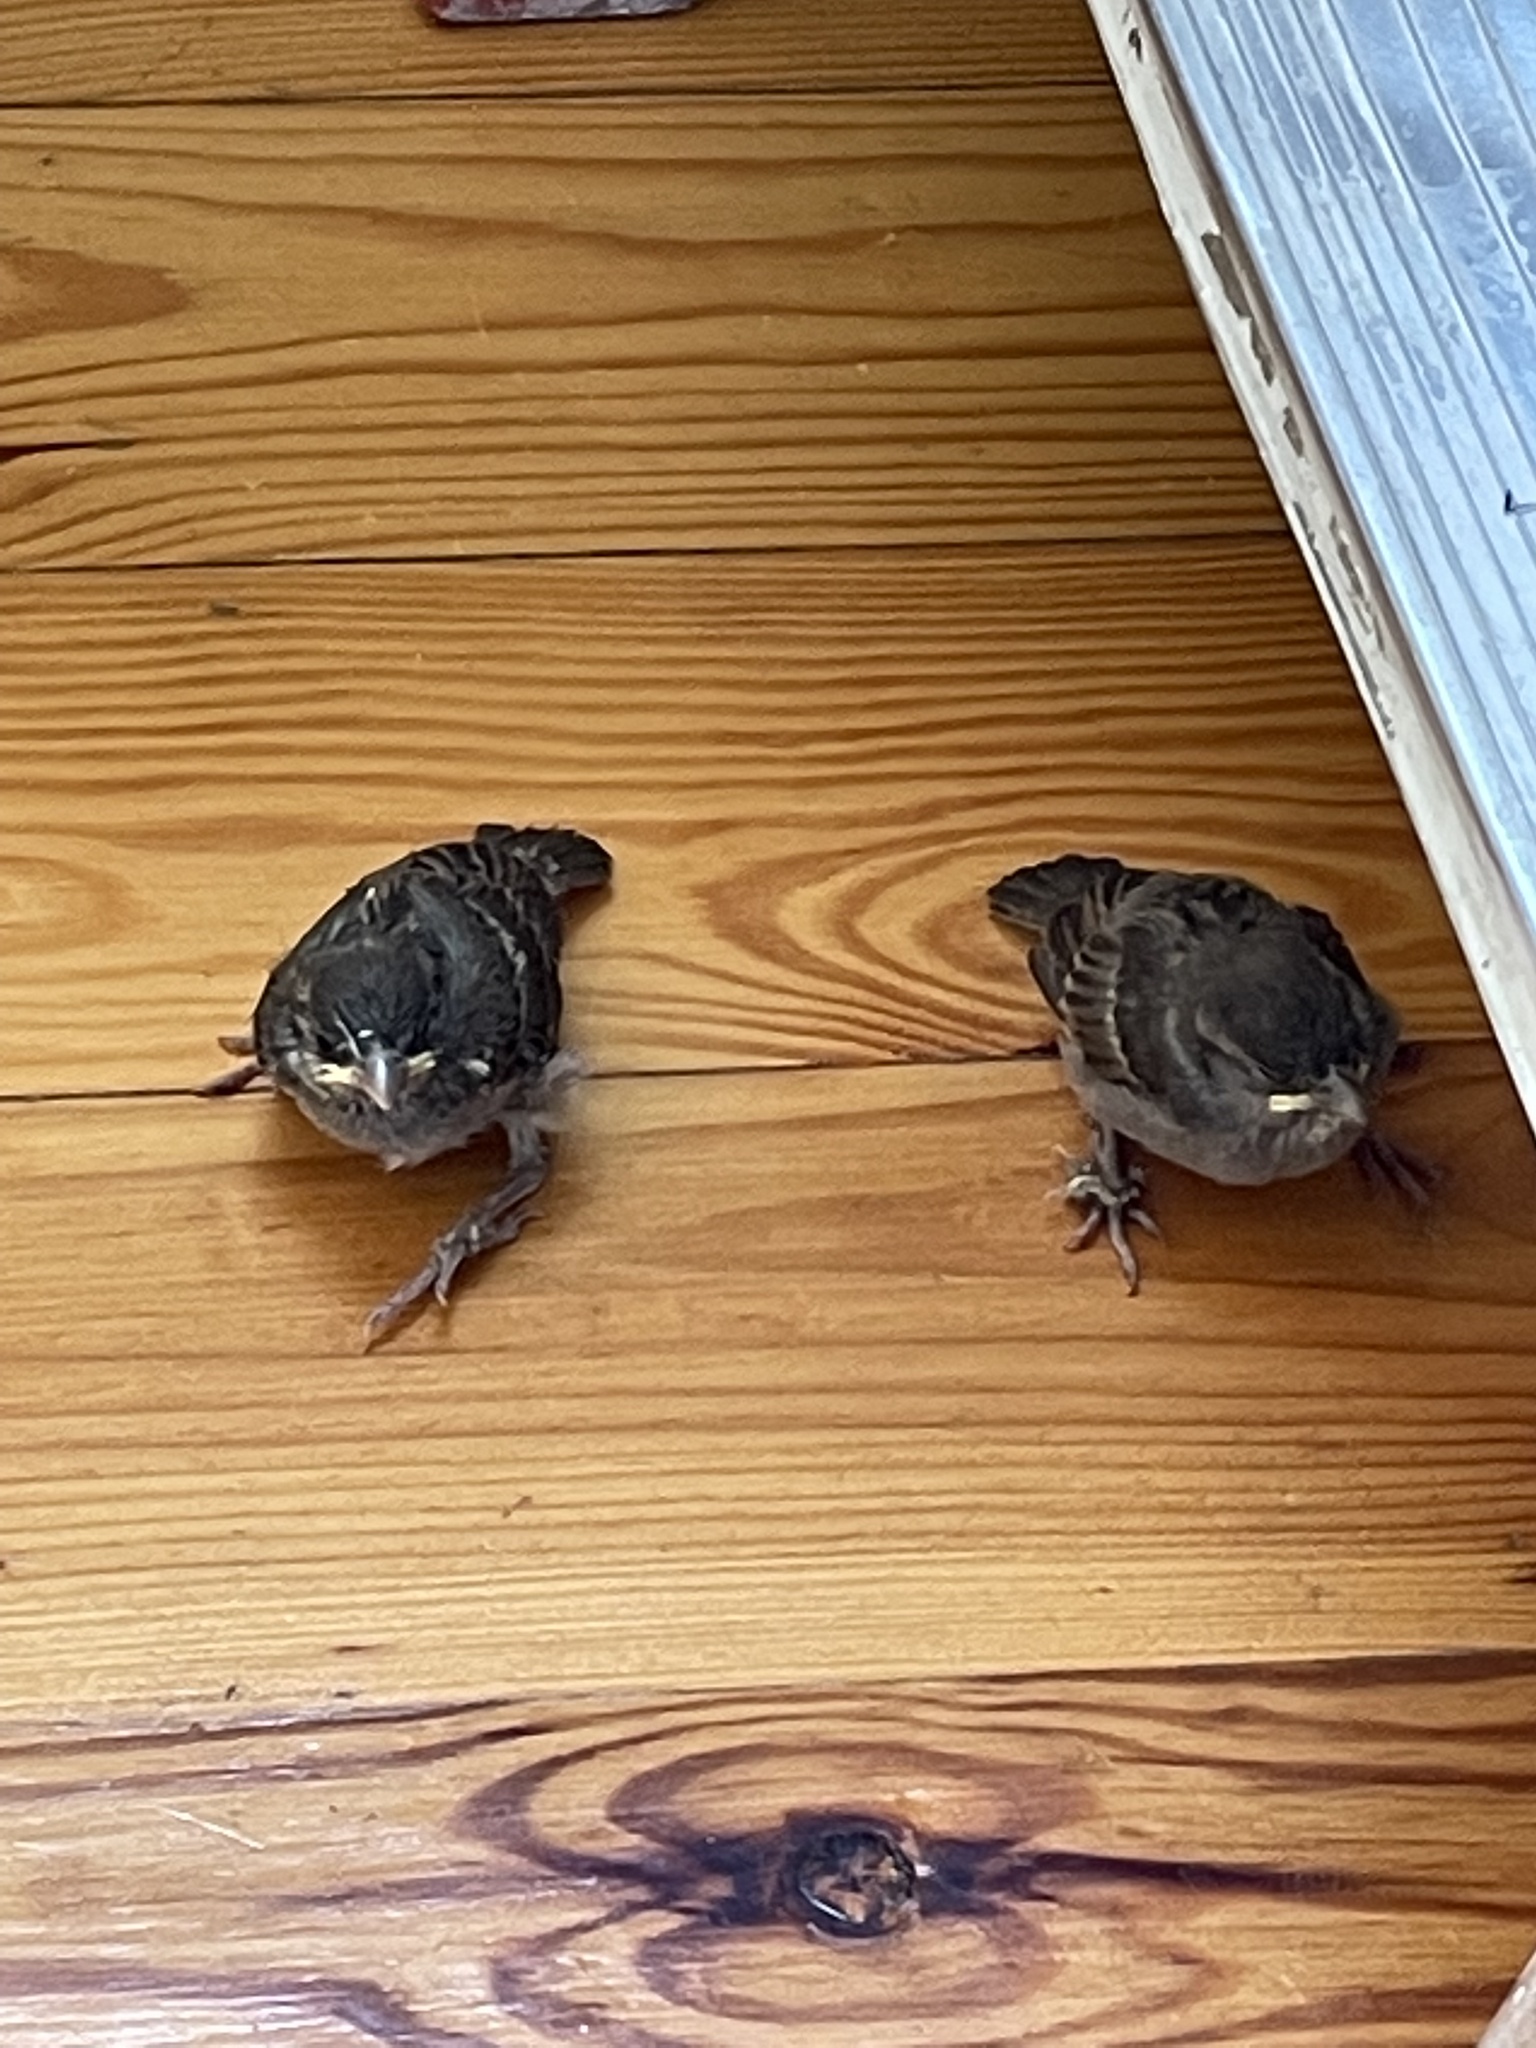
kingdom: Animalia
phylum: Chordata
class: Aves
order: Passeriformes
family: Passeridae
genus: Passer
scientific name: Passer domesticus
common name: House sparrow
